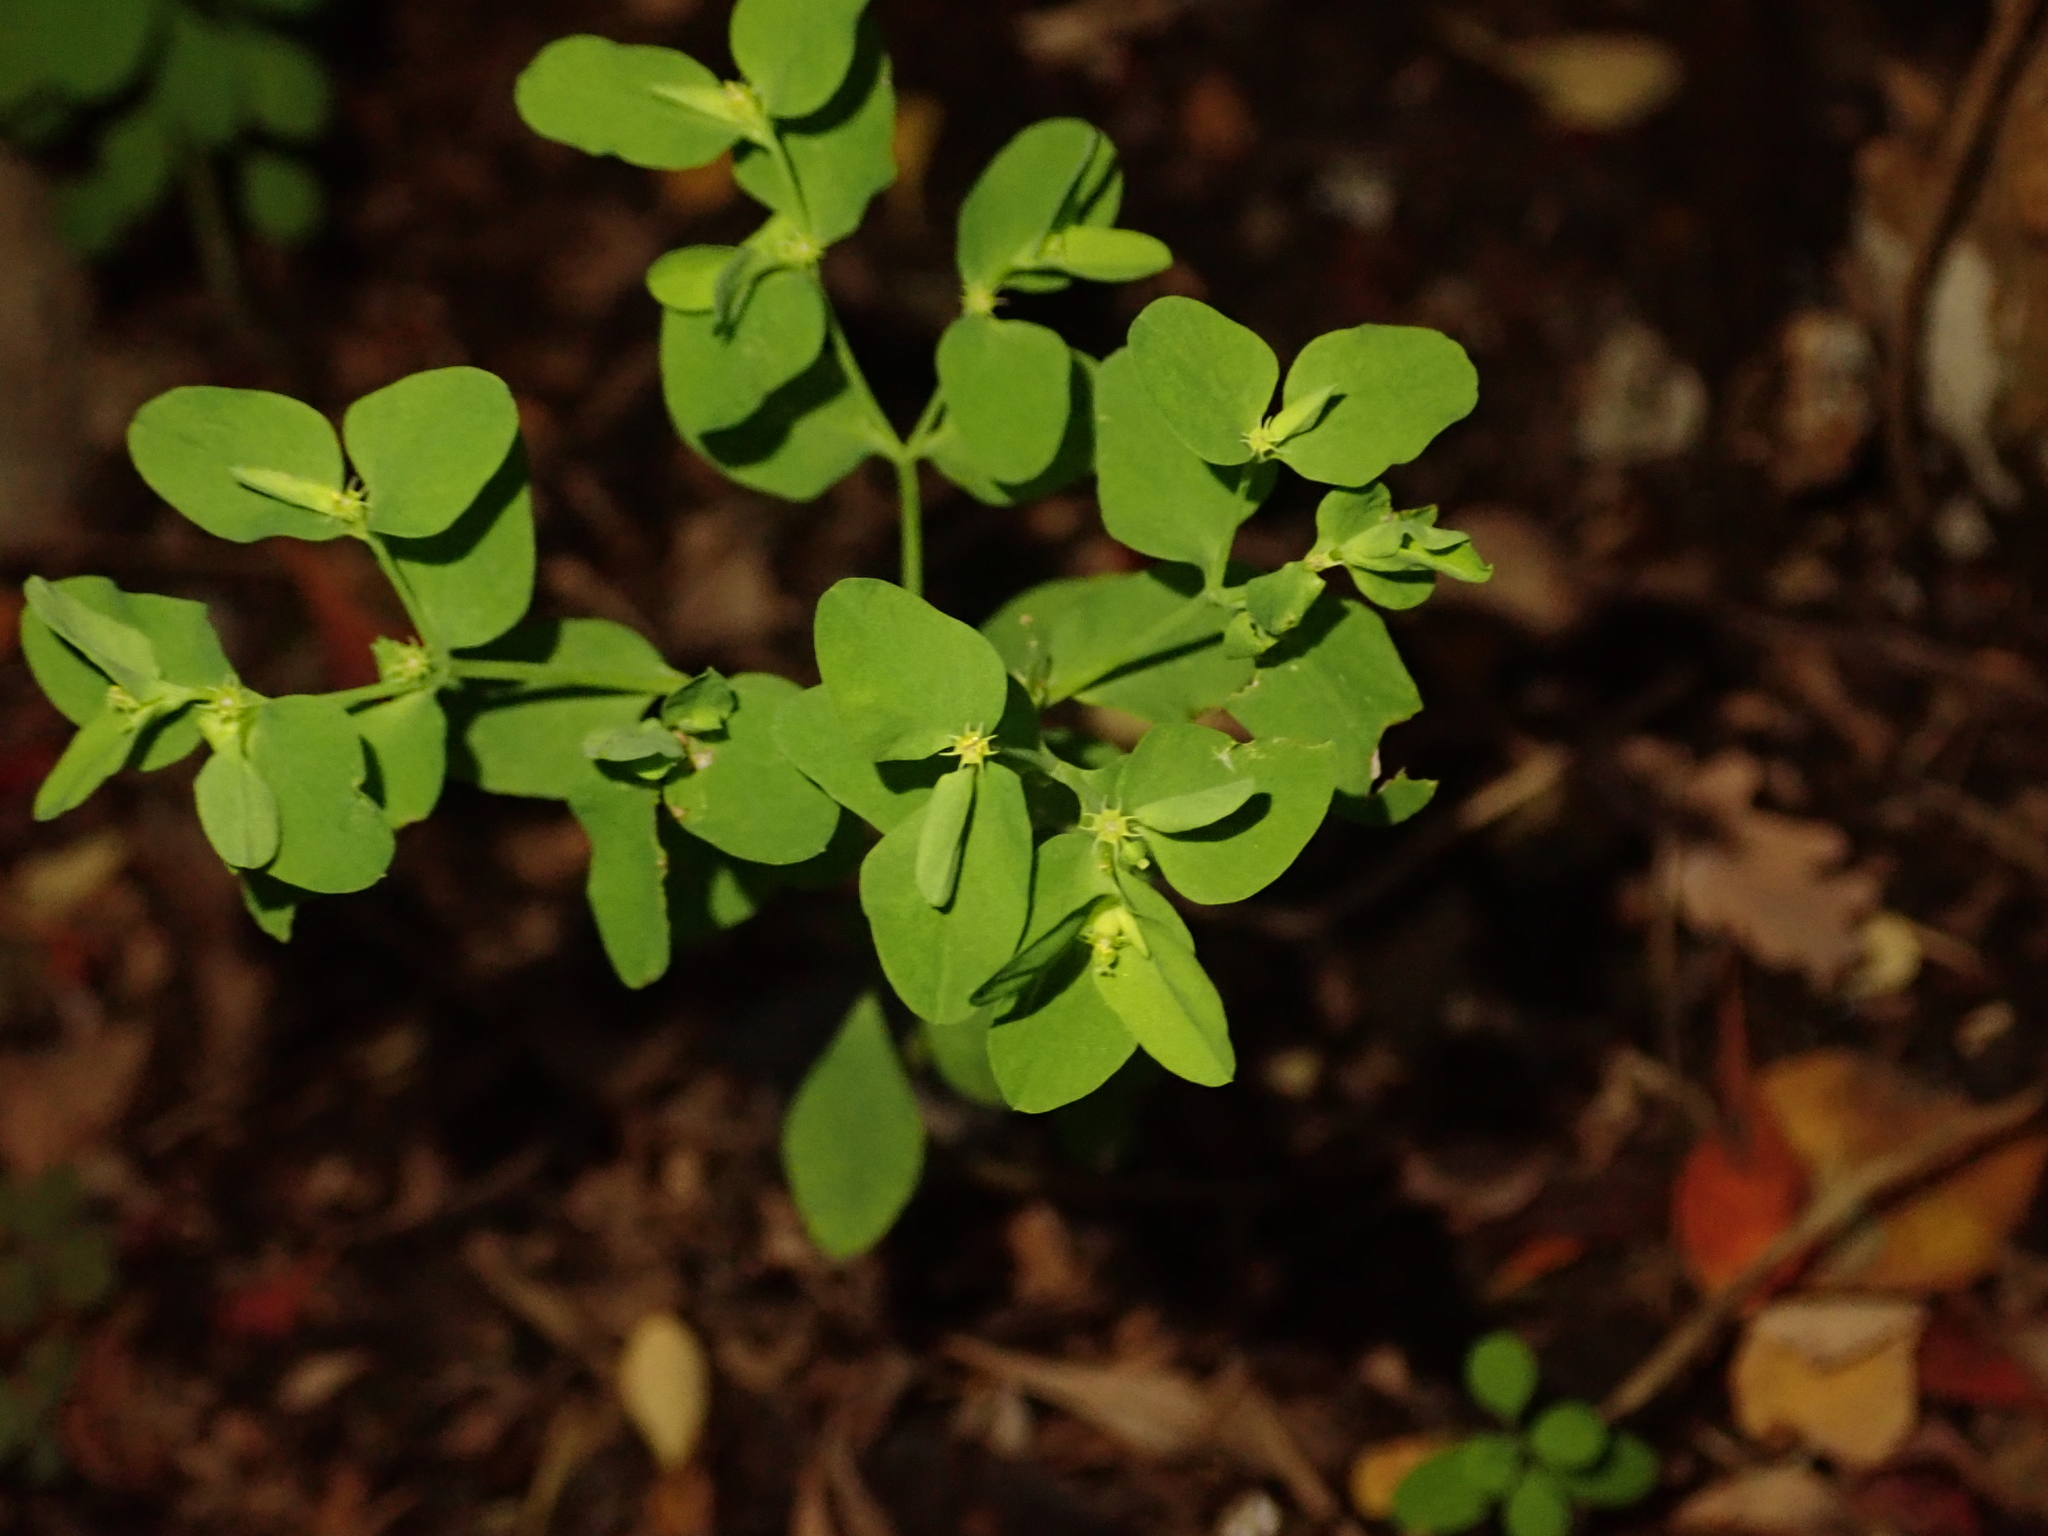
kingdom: Plantae
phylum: Tracheophyta
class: Magnoliopsida
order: Malpighiales
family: Euphorbiaceae
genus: Euphorbia
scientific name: Euphorbia peplus
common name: Petty spurge
